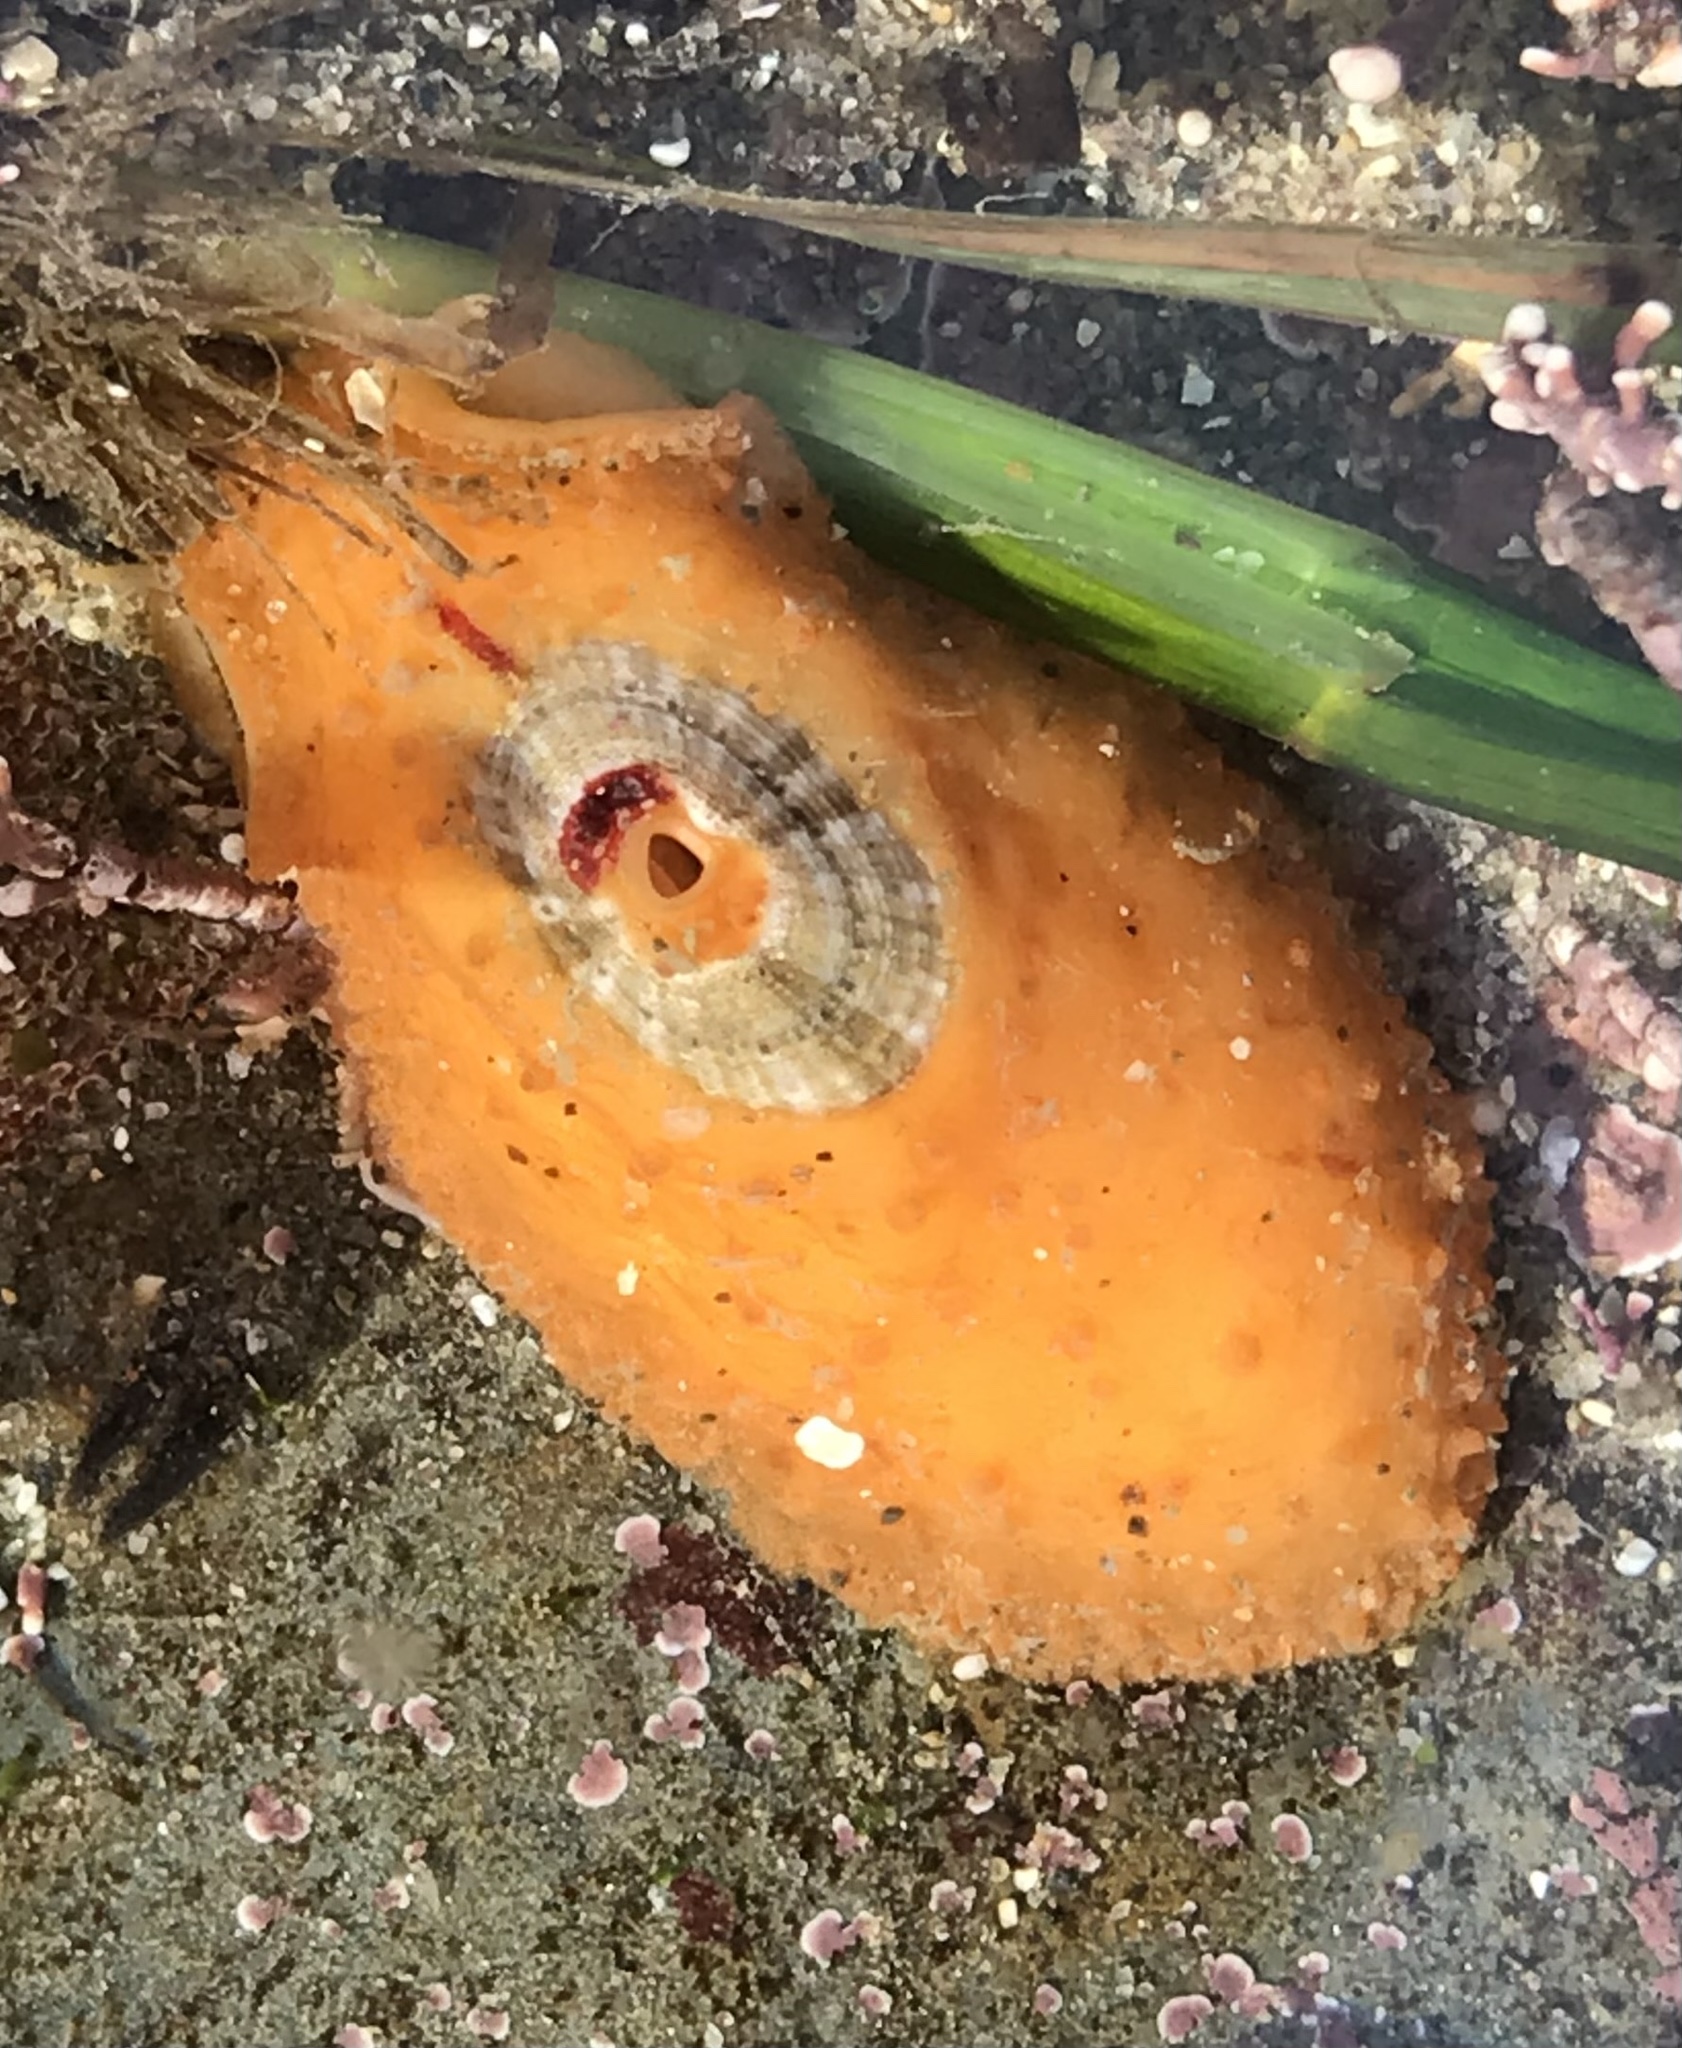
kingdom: Animalia
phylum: Mollusca
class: Gastropoda
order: Lepetellida
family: Fissurellidae
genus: Fissurellidea
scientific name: Fissurellidea bimaculata
